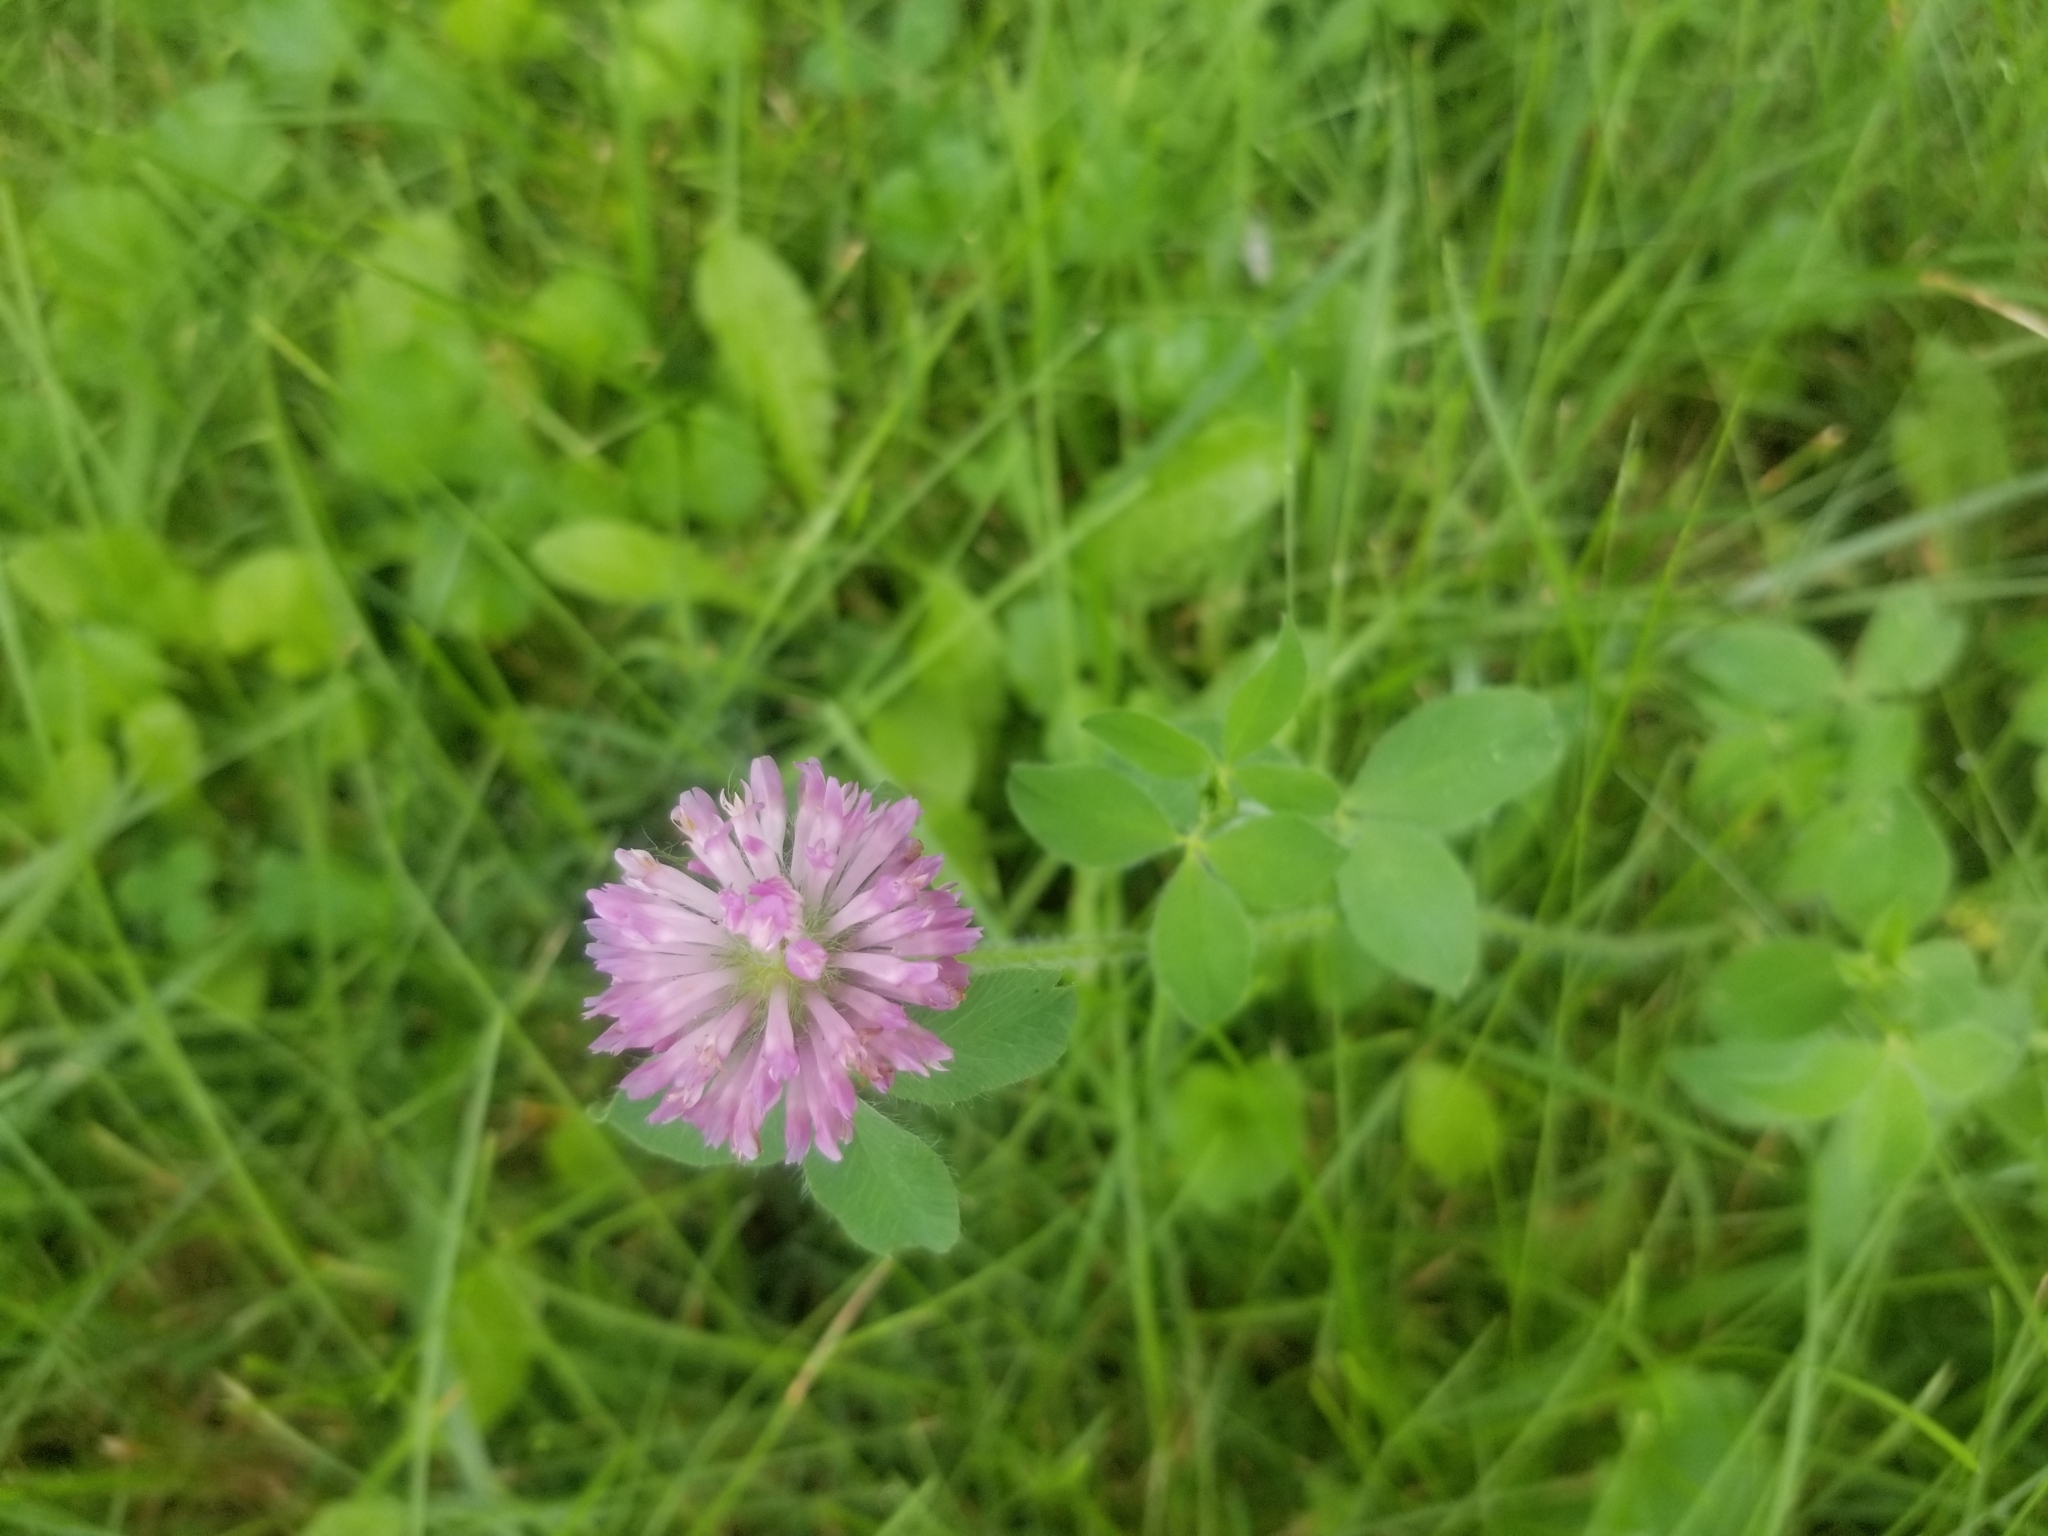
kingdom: Plantae
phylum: Tracheophyta
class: Magnoliopsida
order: Fabales
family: Fabaceae
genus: Trifolium
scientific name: Trifolium pratense
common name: Red clover
